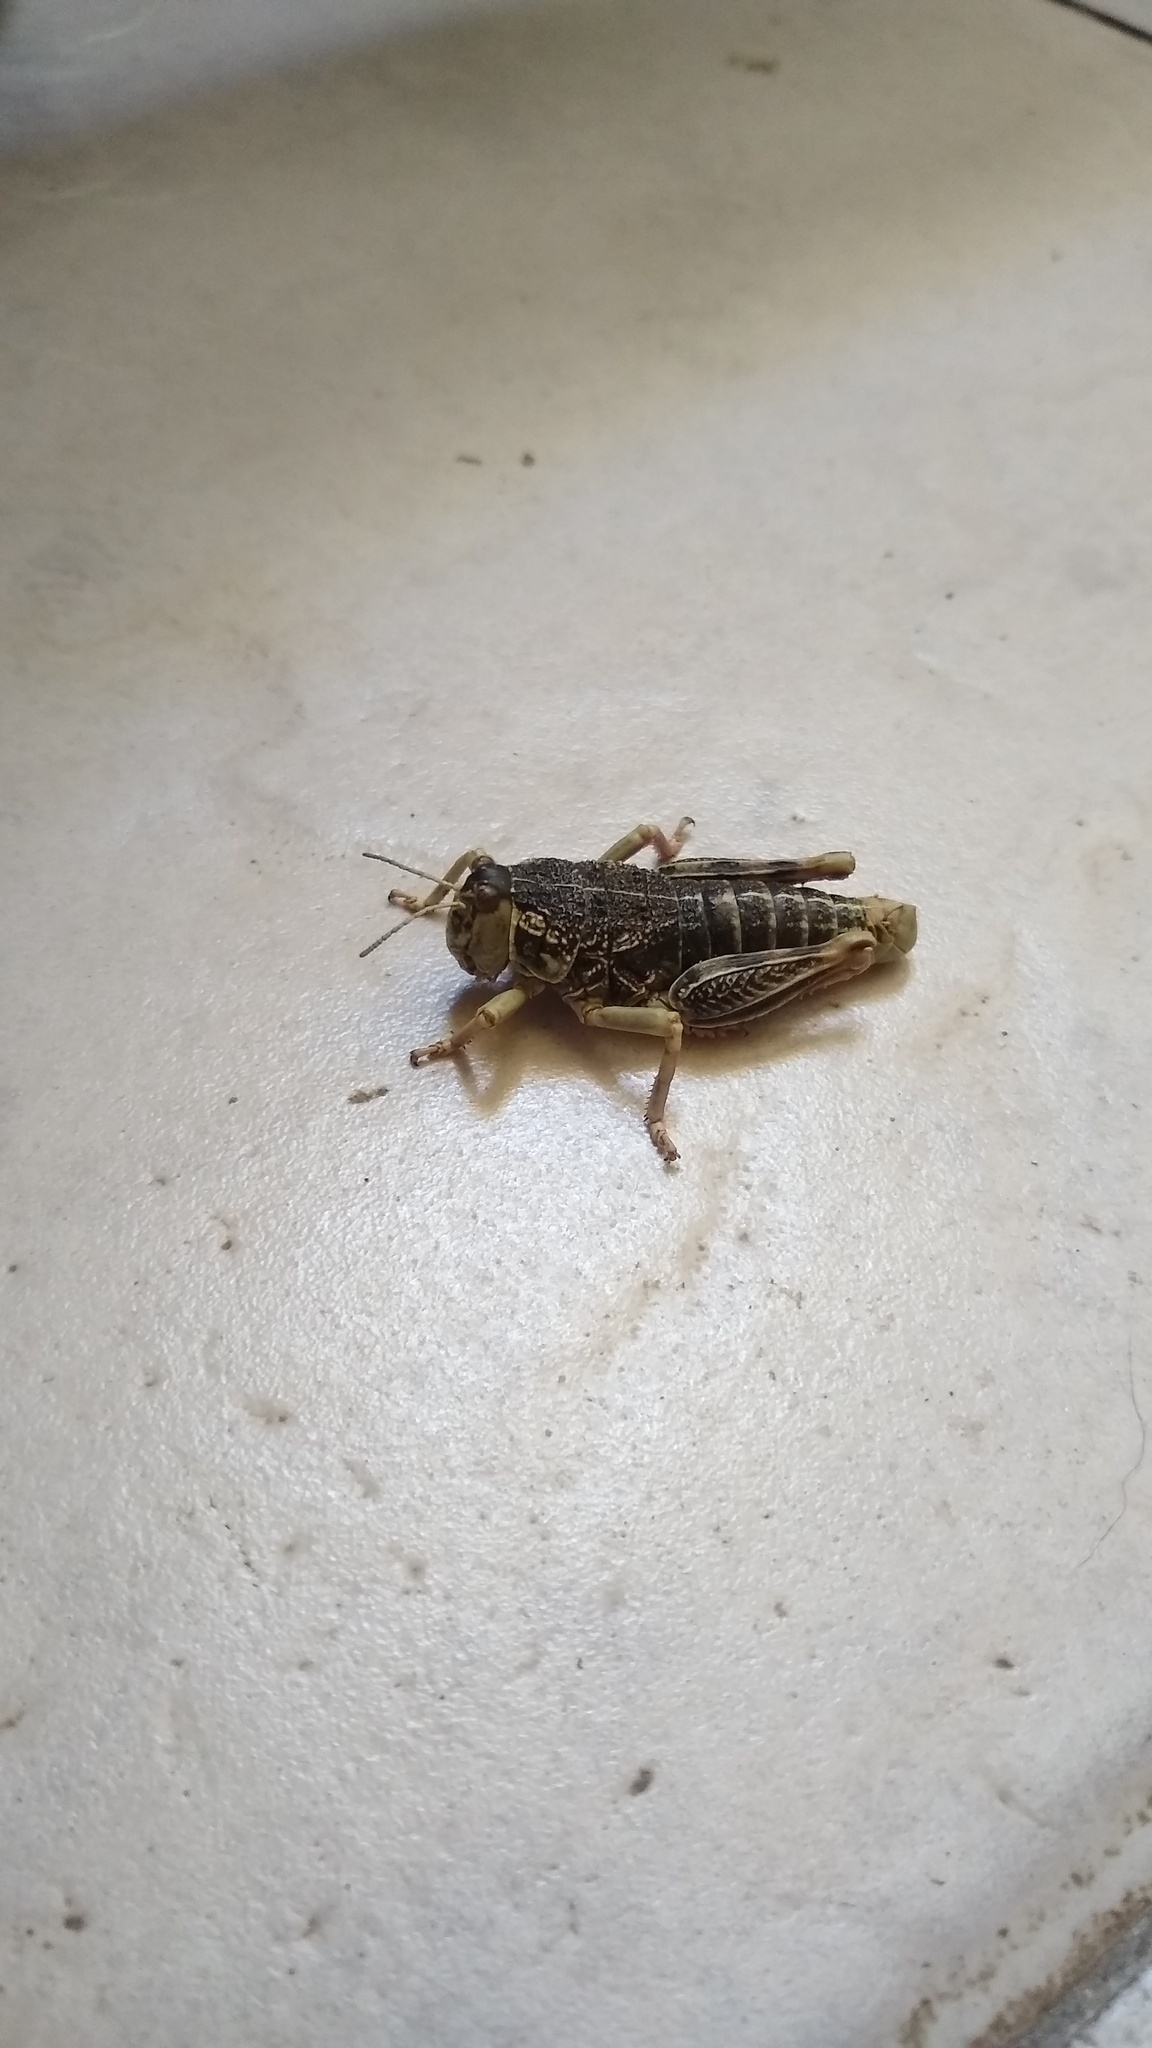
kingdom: Animalia
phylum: Arthropoda
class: Insecta
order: Orthoptera
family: Tristiridae
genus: Bufonacris
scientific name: Bufonacris claraziana
